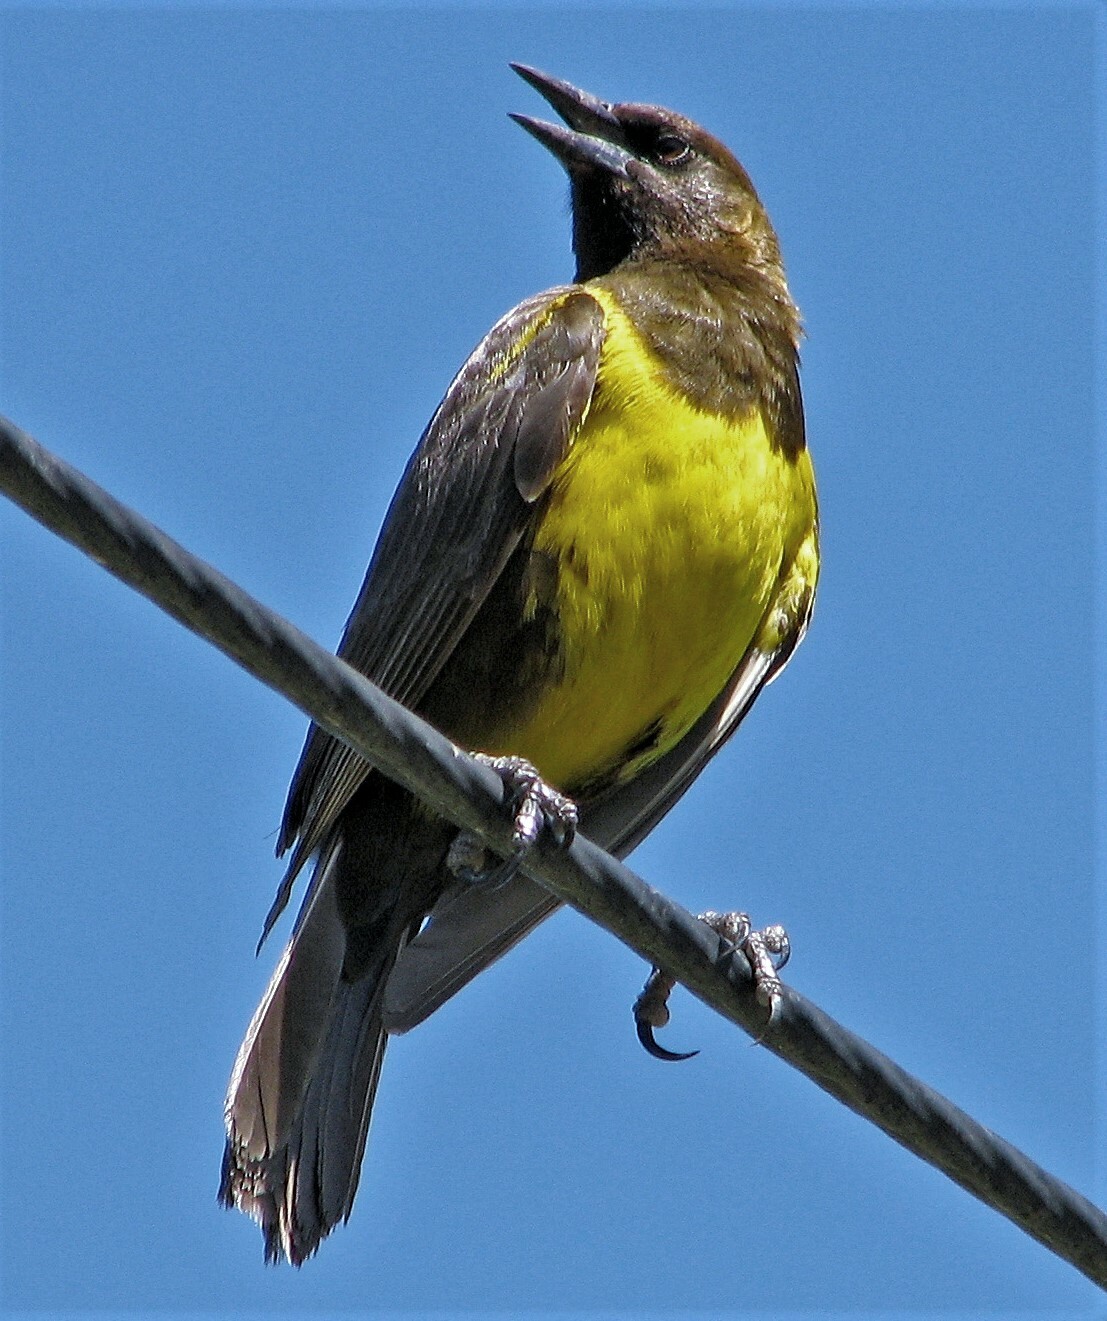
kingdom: Animalia
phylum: Chordata
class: Aves
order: Passeriformes
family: Icteridae
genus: Pseudoleistes
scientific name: Pseudoleistes virescens
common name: Brown-and-yellow marshbird
